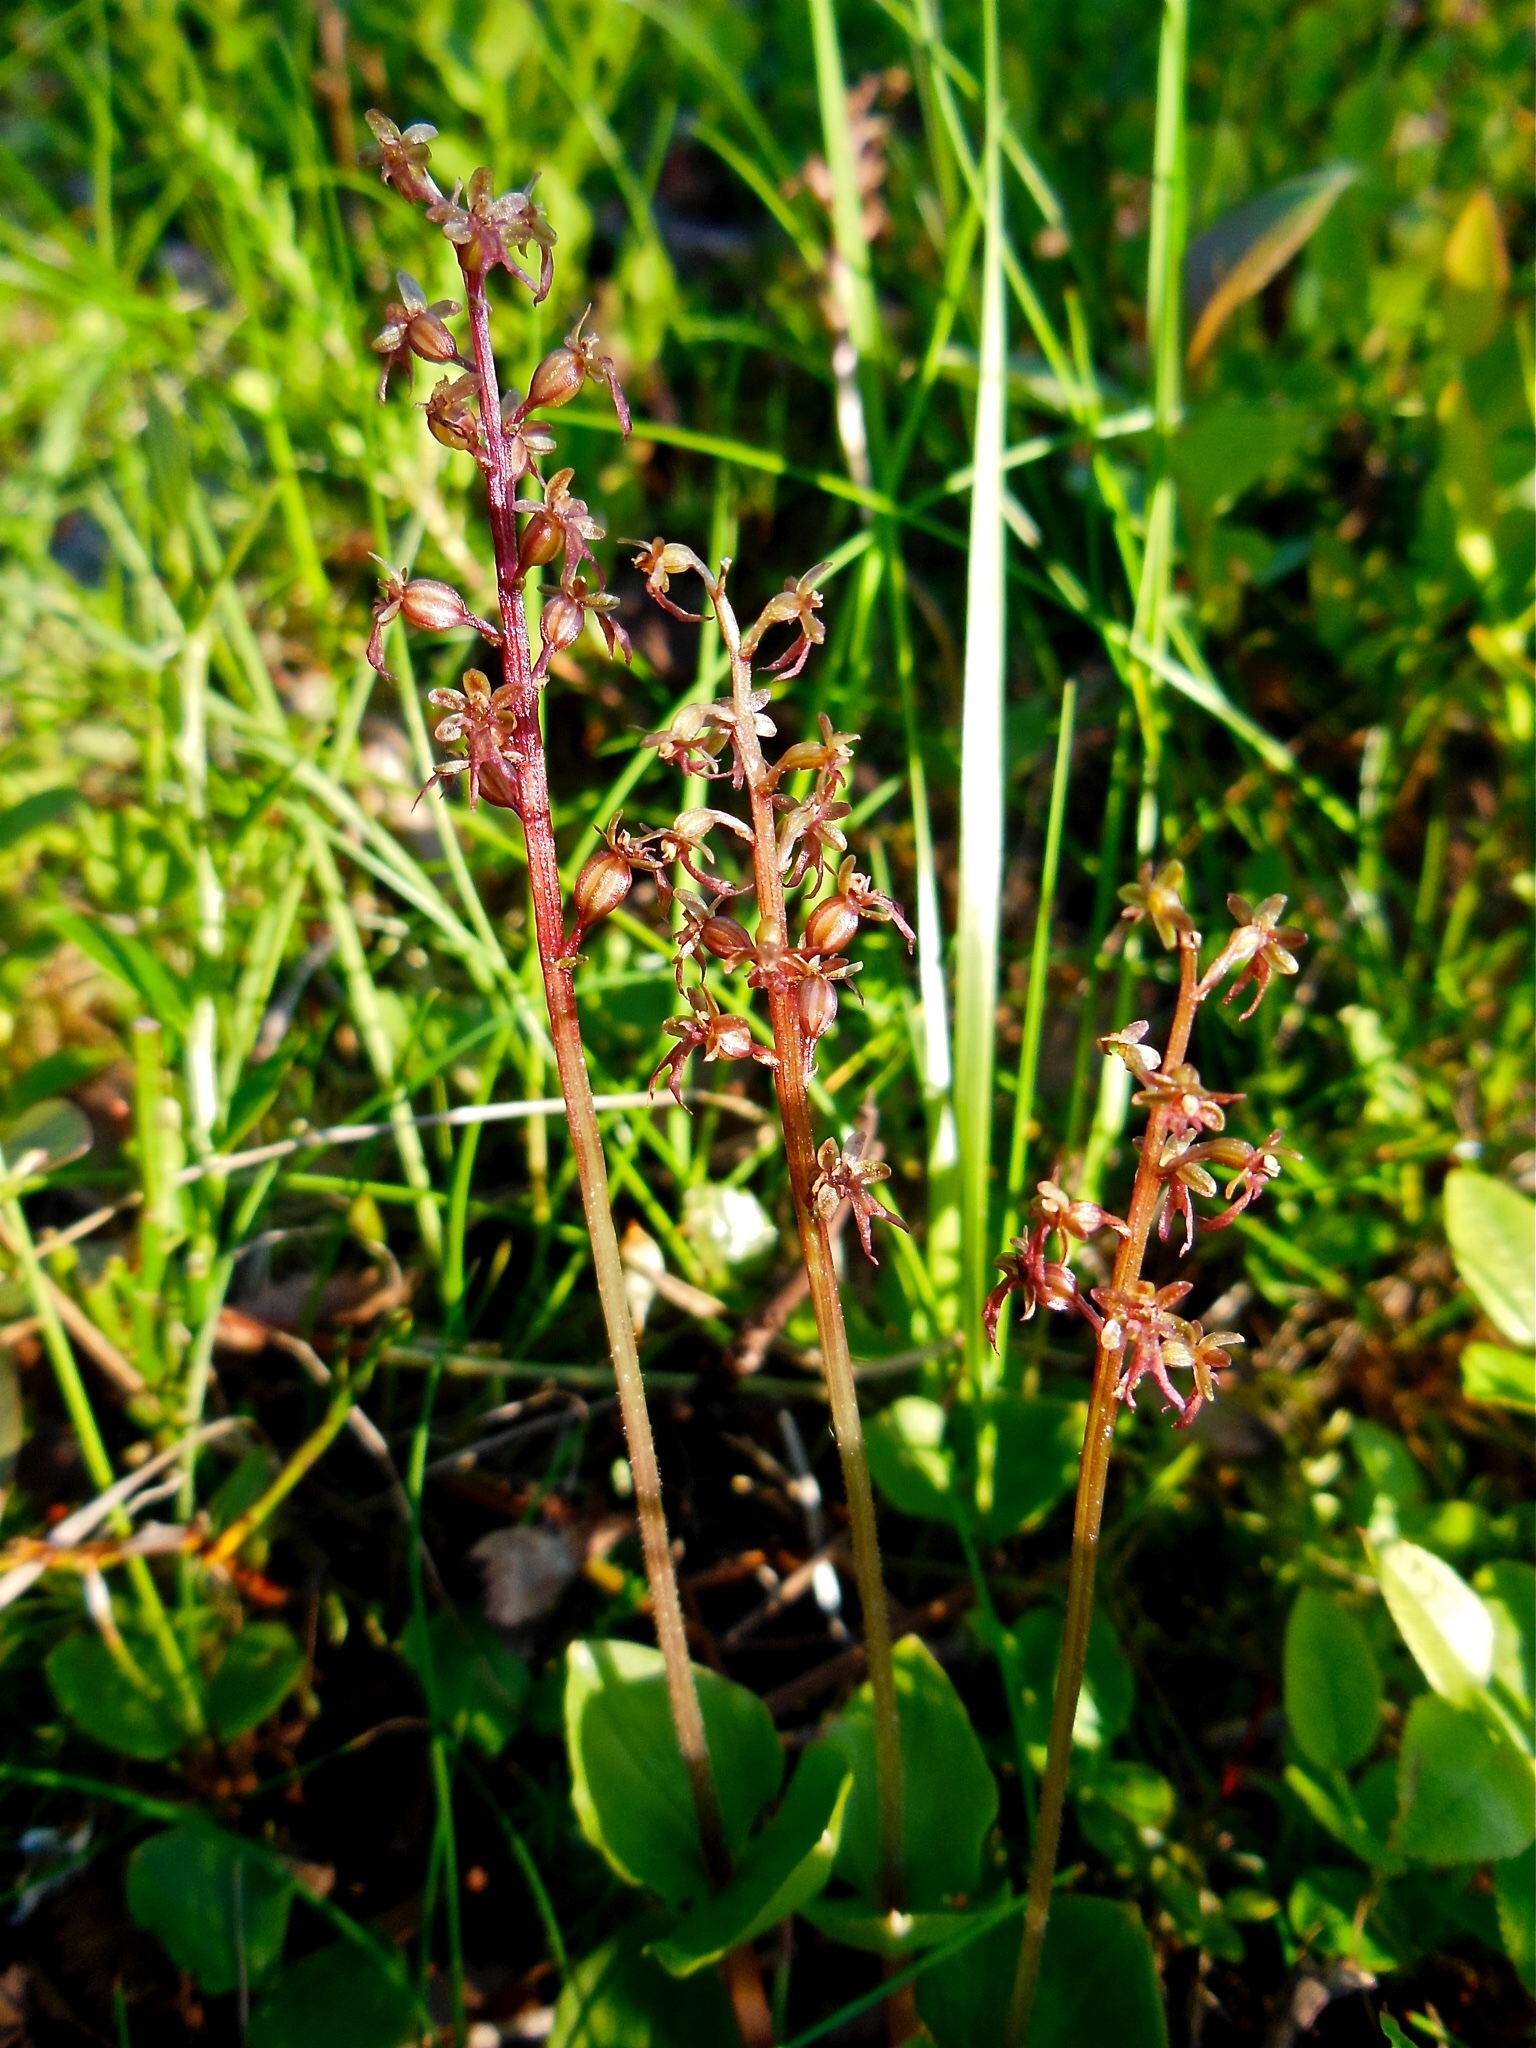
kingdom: Plantae
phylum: Tracheophyta
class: Liliopsida
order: Asparagales
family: Orchidaceae
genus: Neottia
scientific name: Neottia cordata
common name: Lesser twayblade
